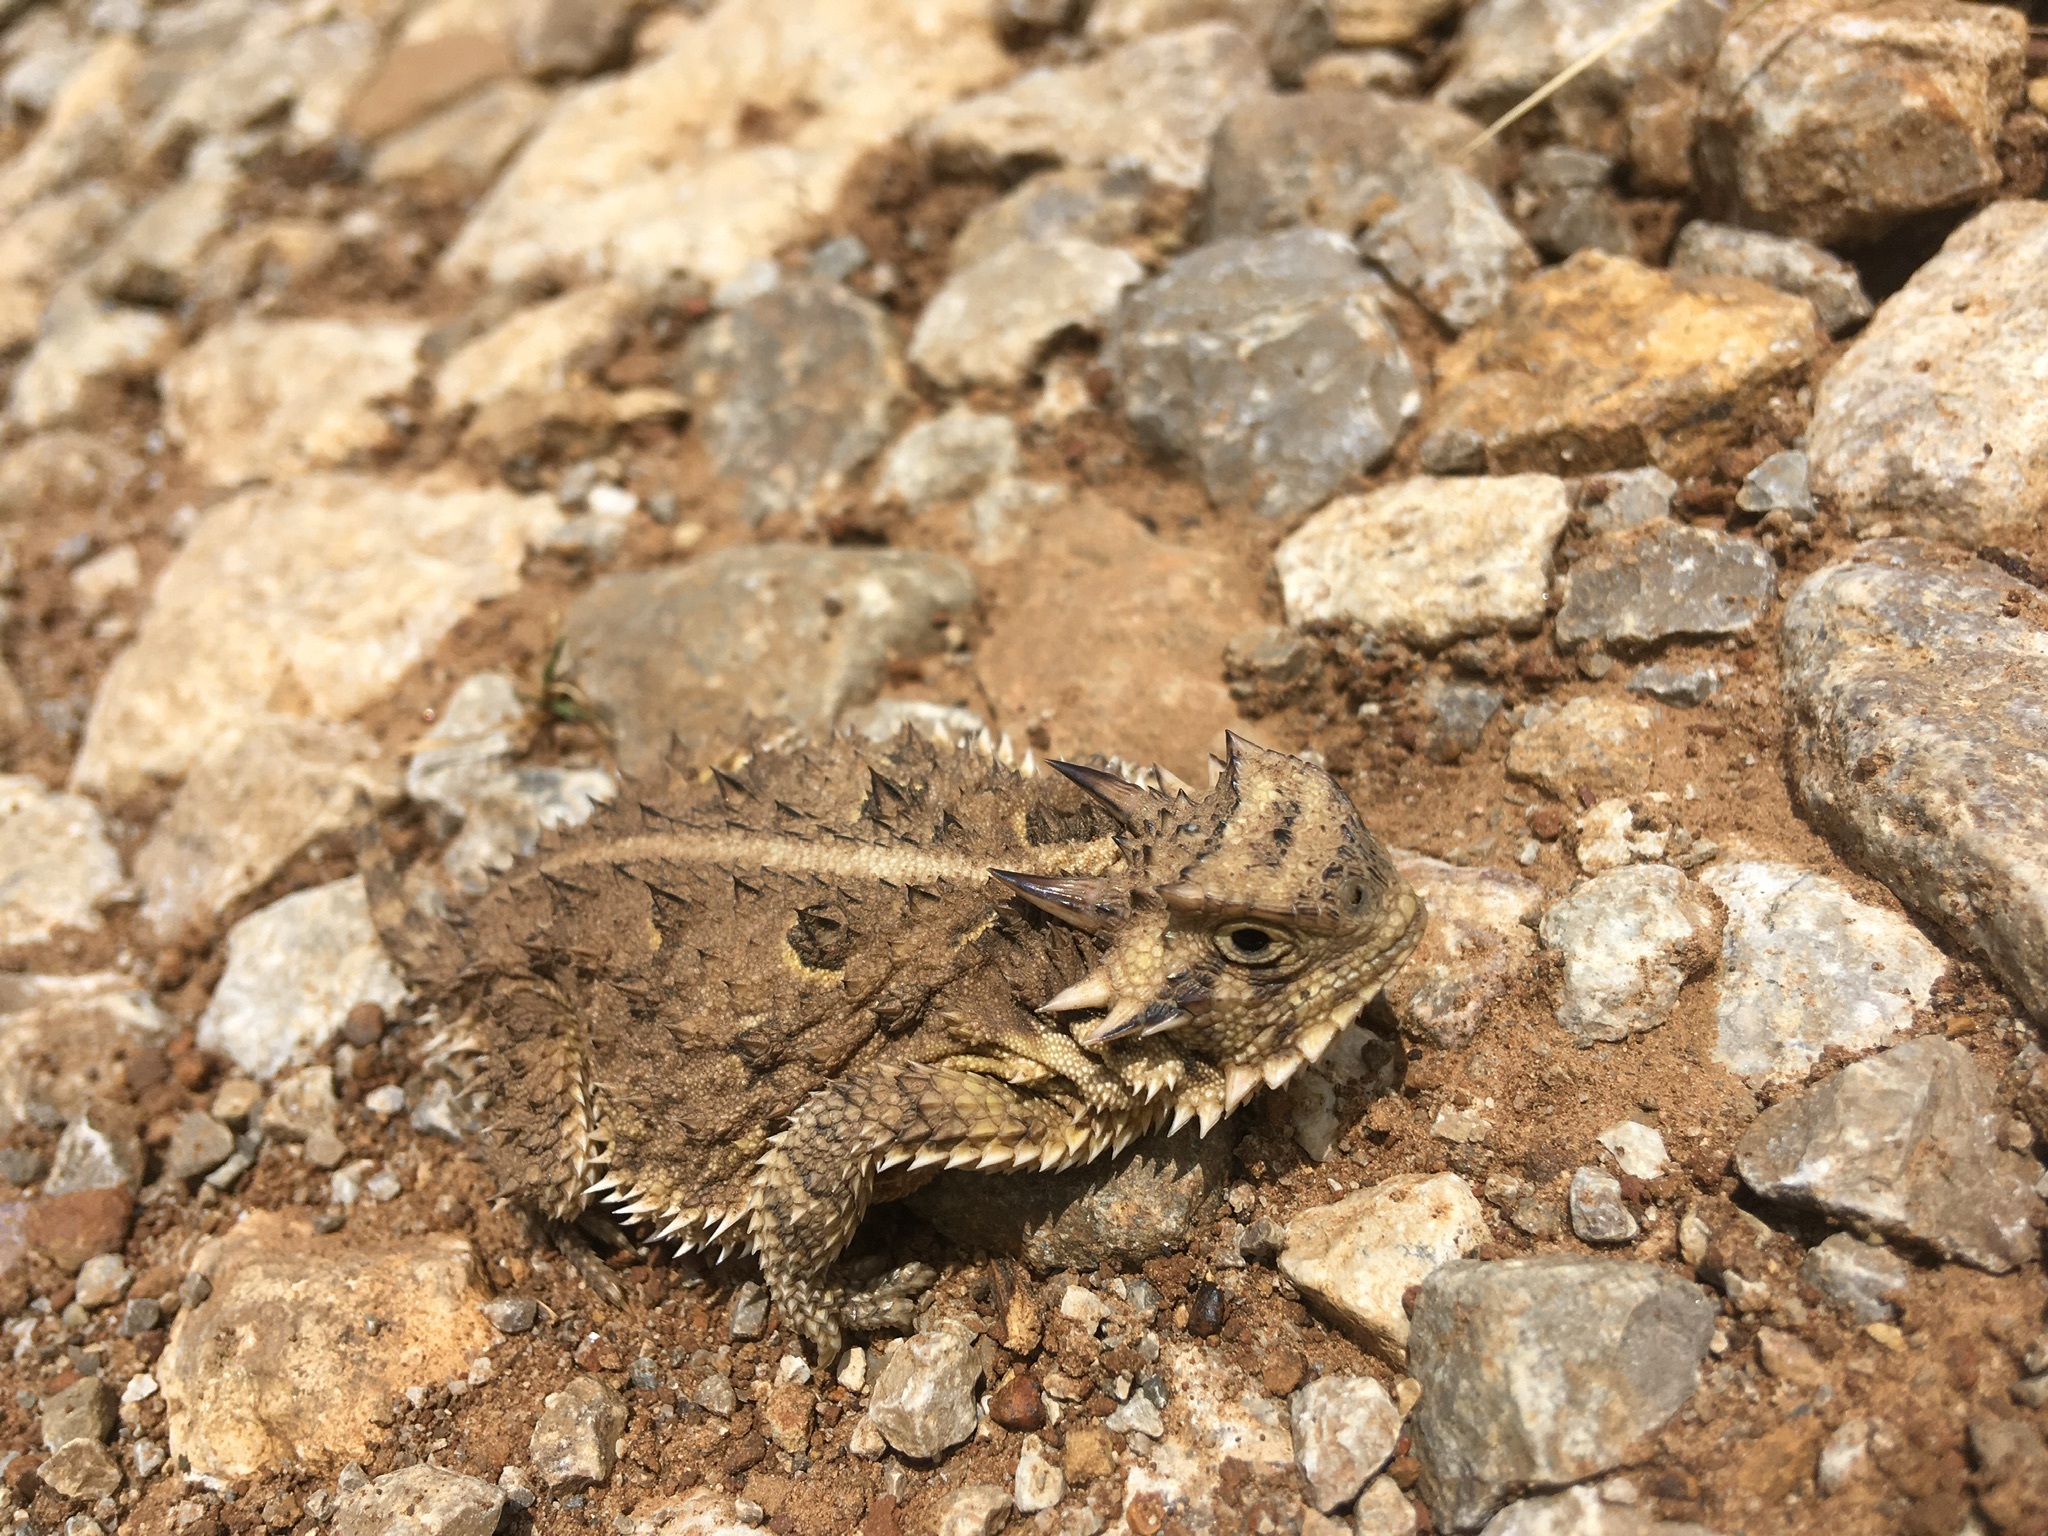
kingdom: Animalia
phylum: Chordata
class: Squamata
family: Phrynosomatidae
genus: Phrynosoma
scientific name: Phrynosoma cornutum
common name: Texas horned lizard
